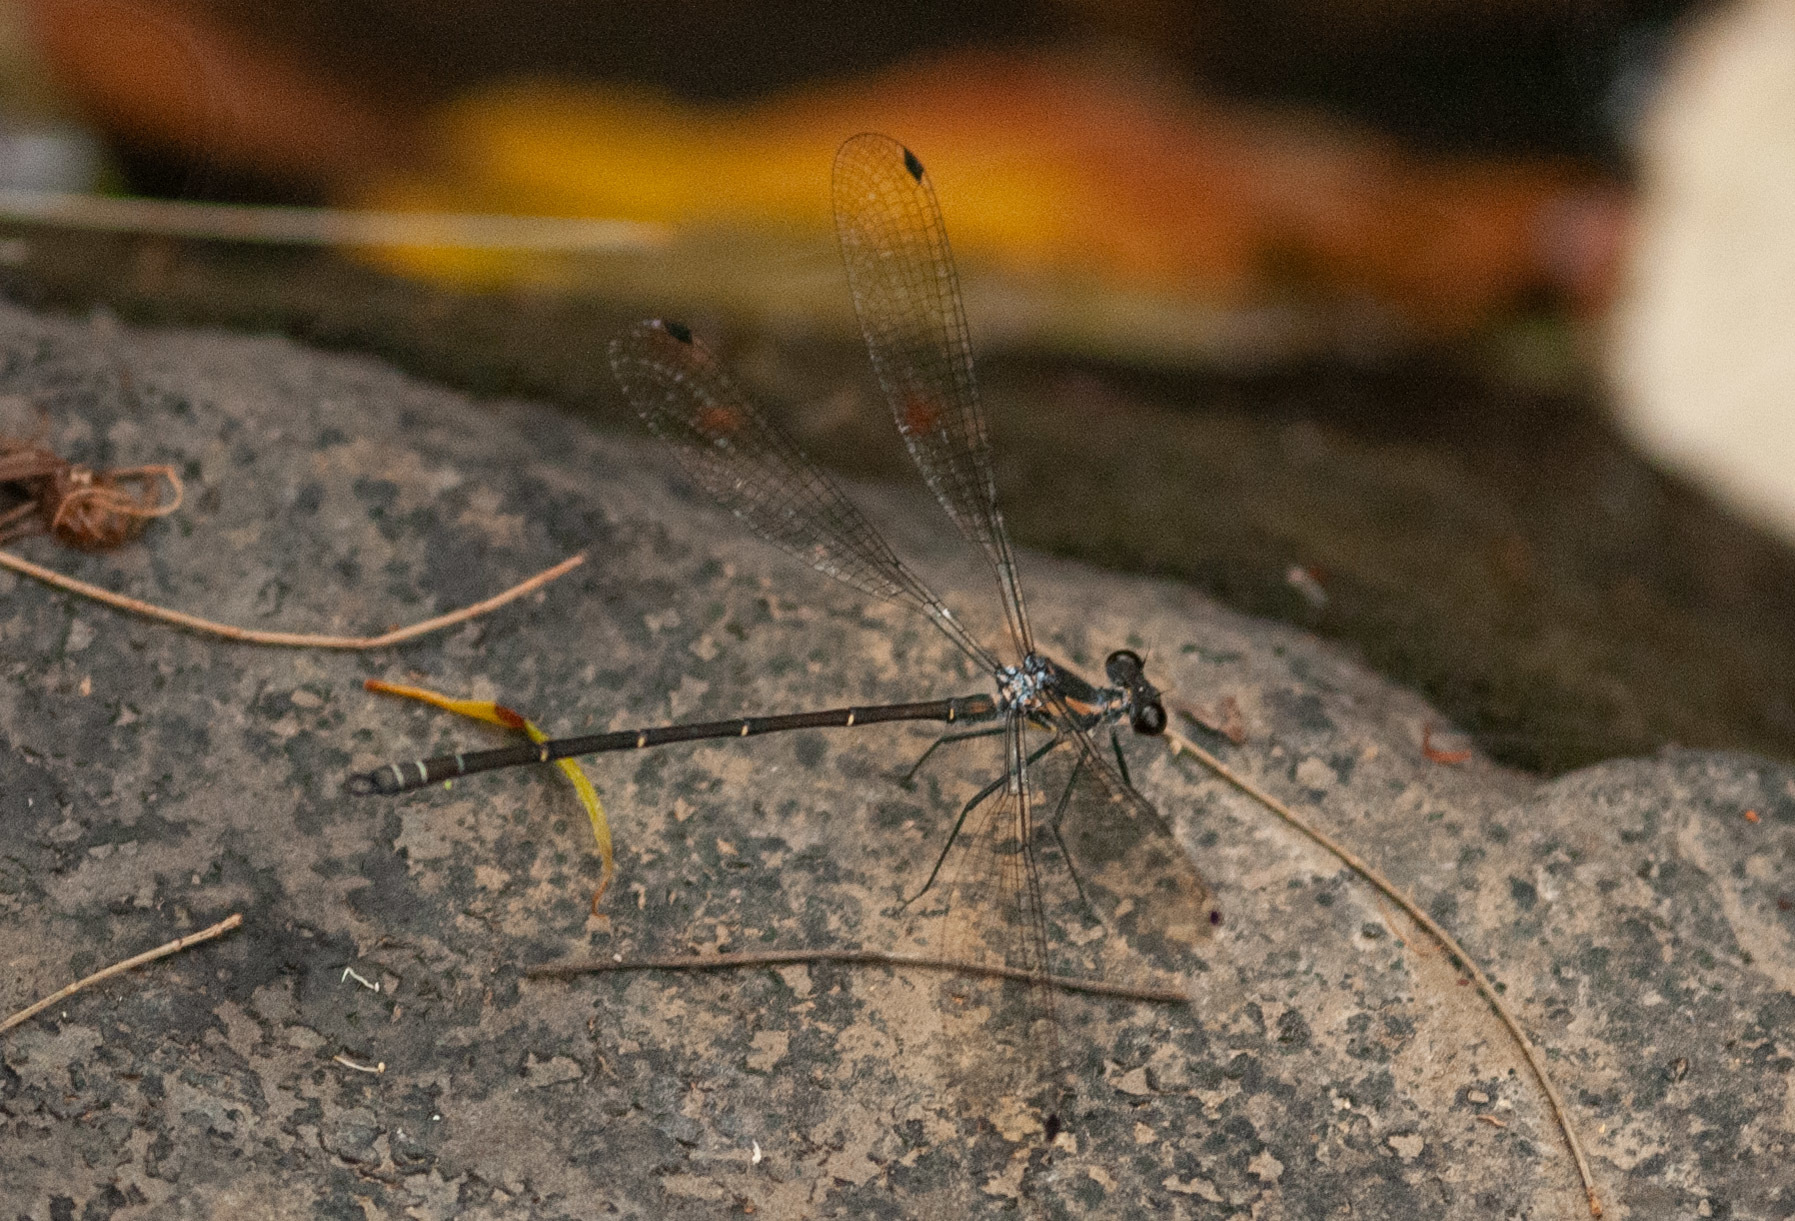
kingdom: Animalia
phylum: Arthropoda
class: Insecta
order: Odonata
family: Argiolestidae
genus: Austroargiolestes
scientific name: Austroargiolestes icteromelas
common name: Common flatwing
